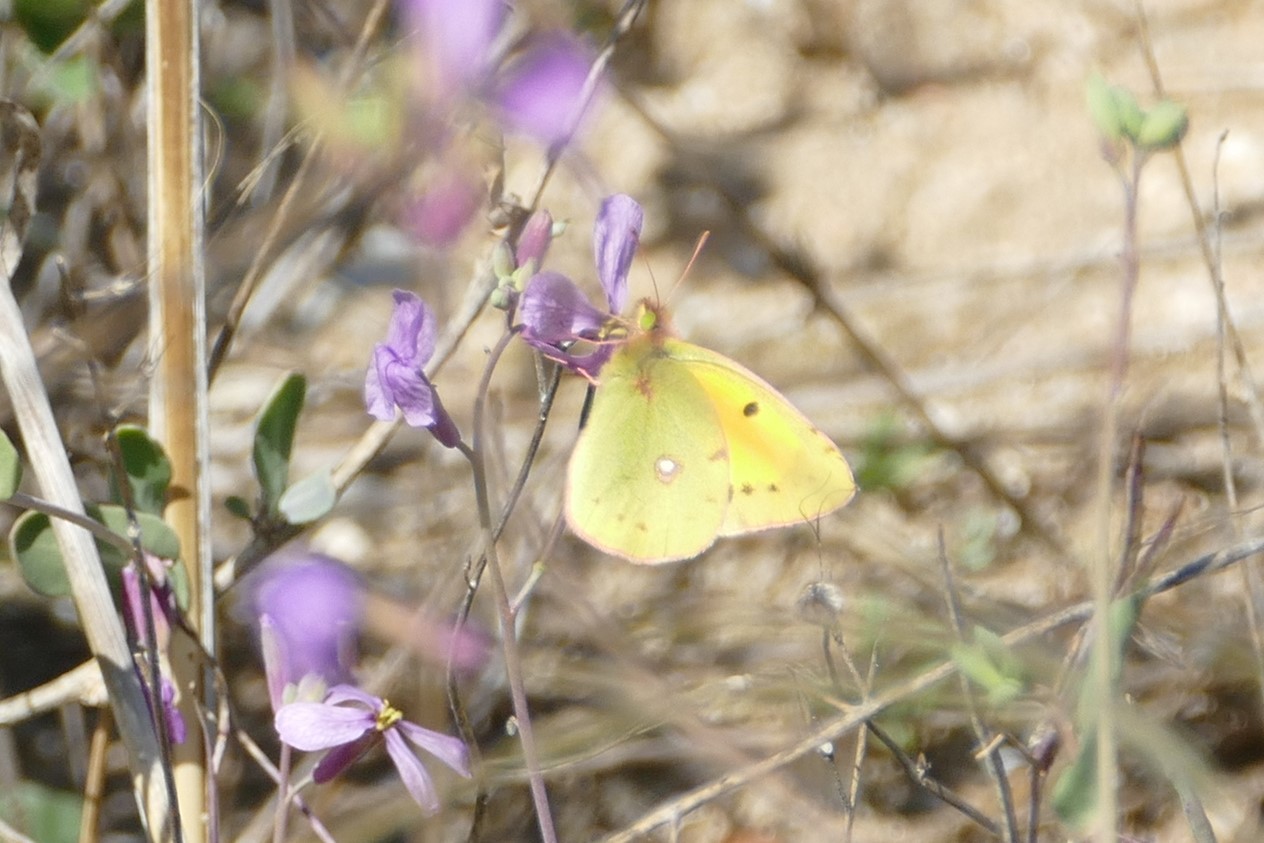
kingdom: Animalia
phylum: Arthropoda
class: Insecta
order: Lepidoptera
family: Pieridae
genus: Colias
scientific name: Colias croceus
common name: Clouded yellow
